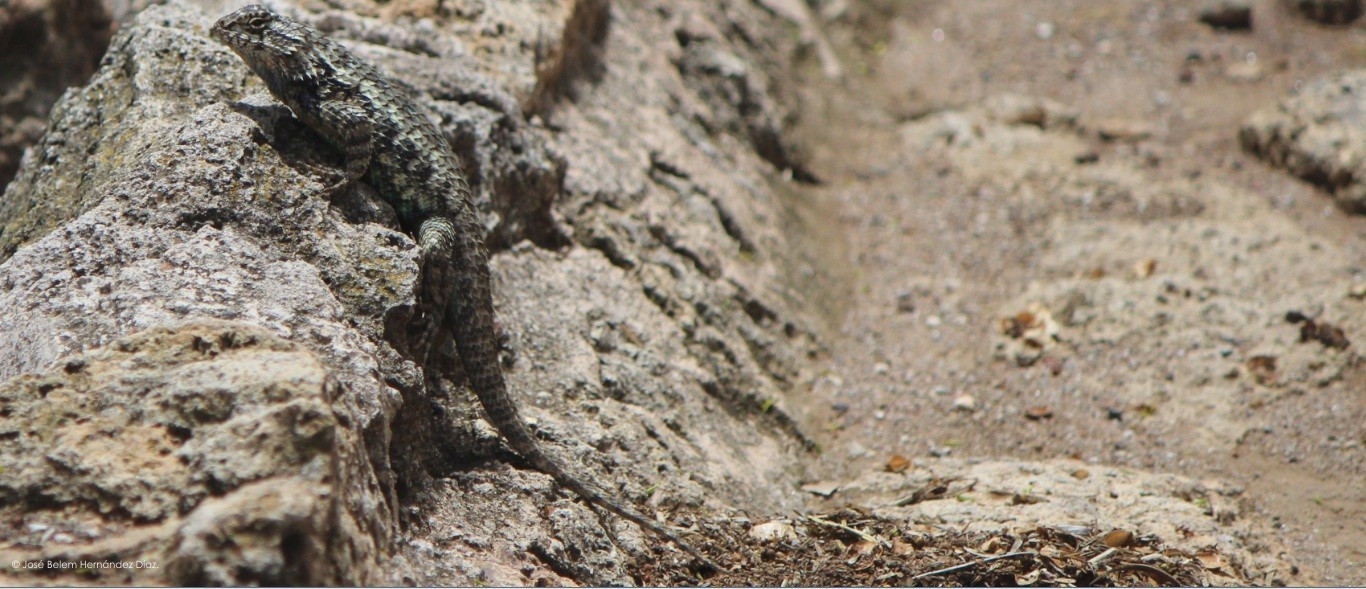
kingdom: Animalia
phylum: Chordata
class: Squamata
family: Phrynosomatidae
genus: Sceloporus
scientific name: Sceloporus spinosus
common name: Blue-spotted spiny lizard [caeruleopunctatus]
